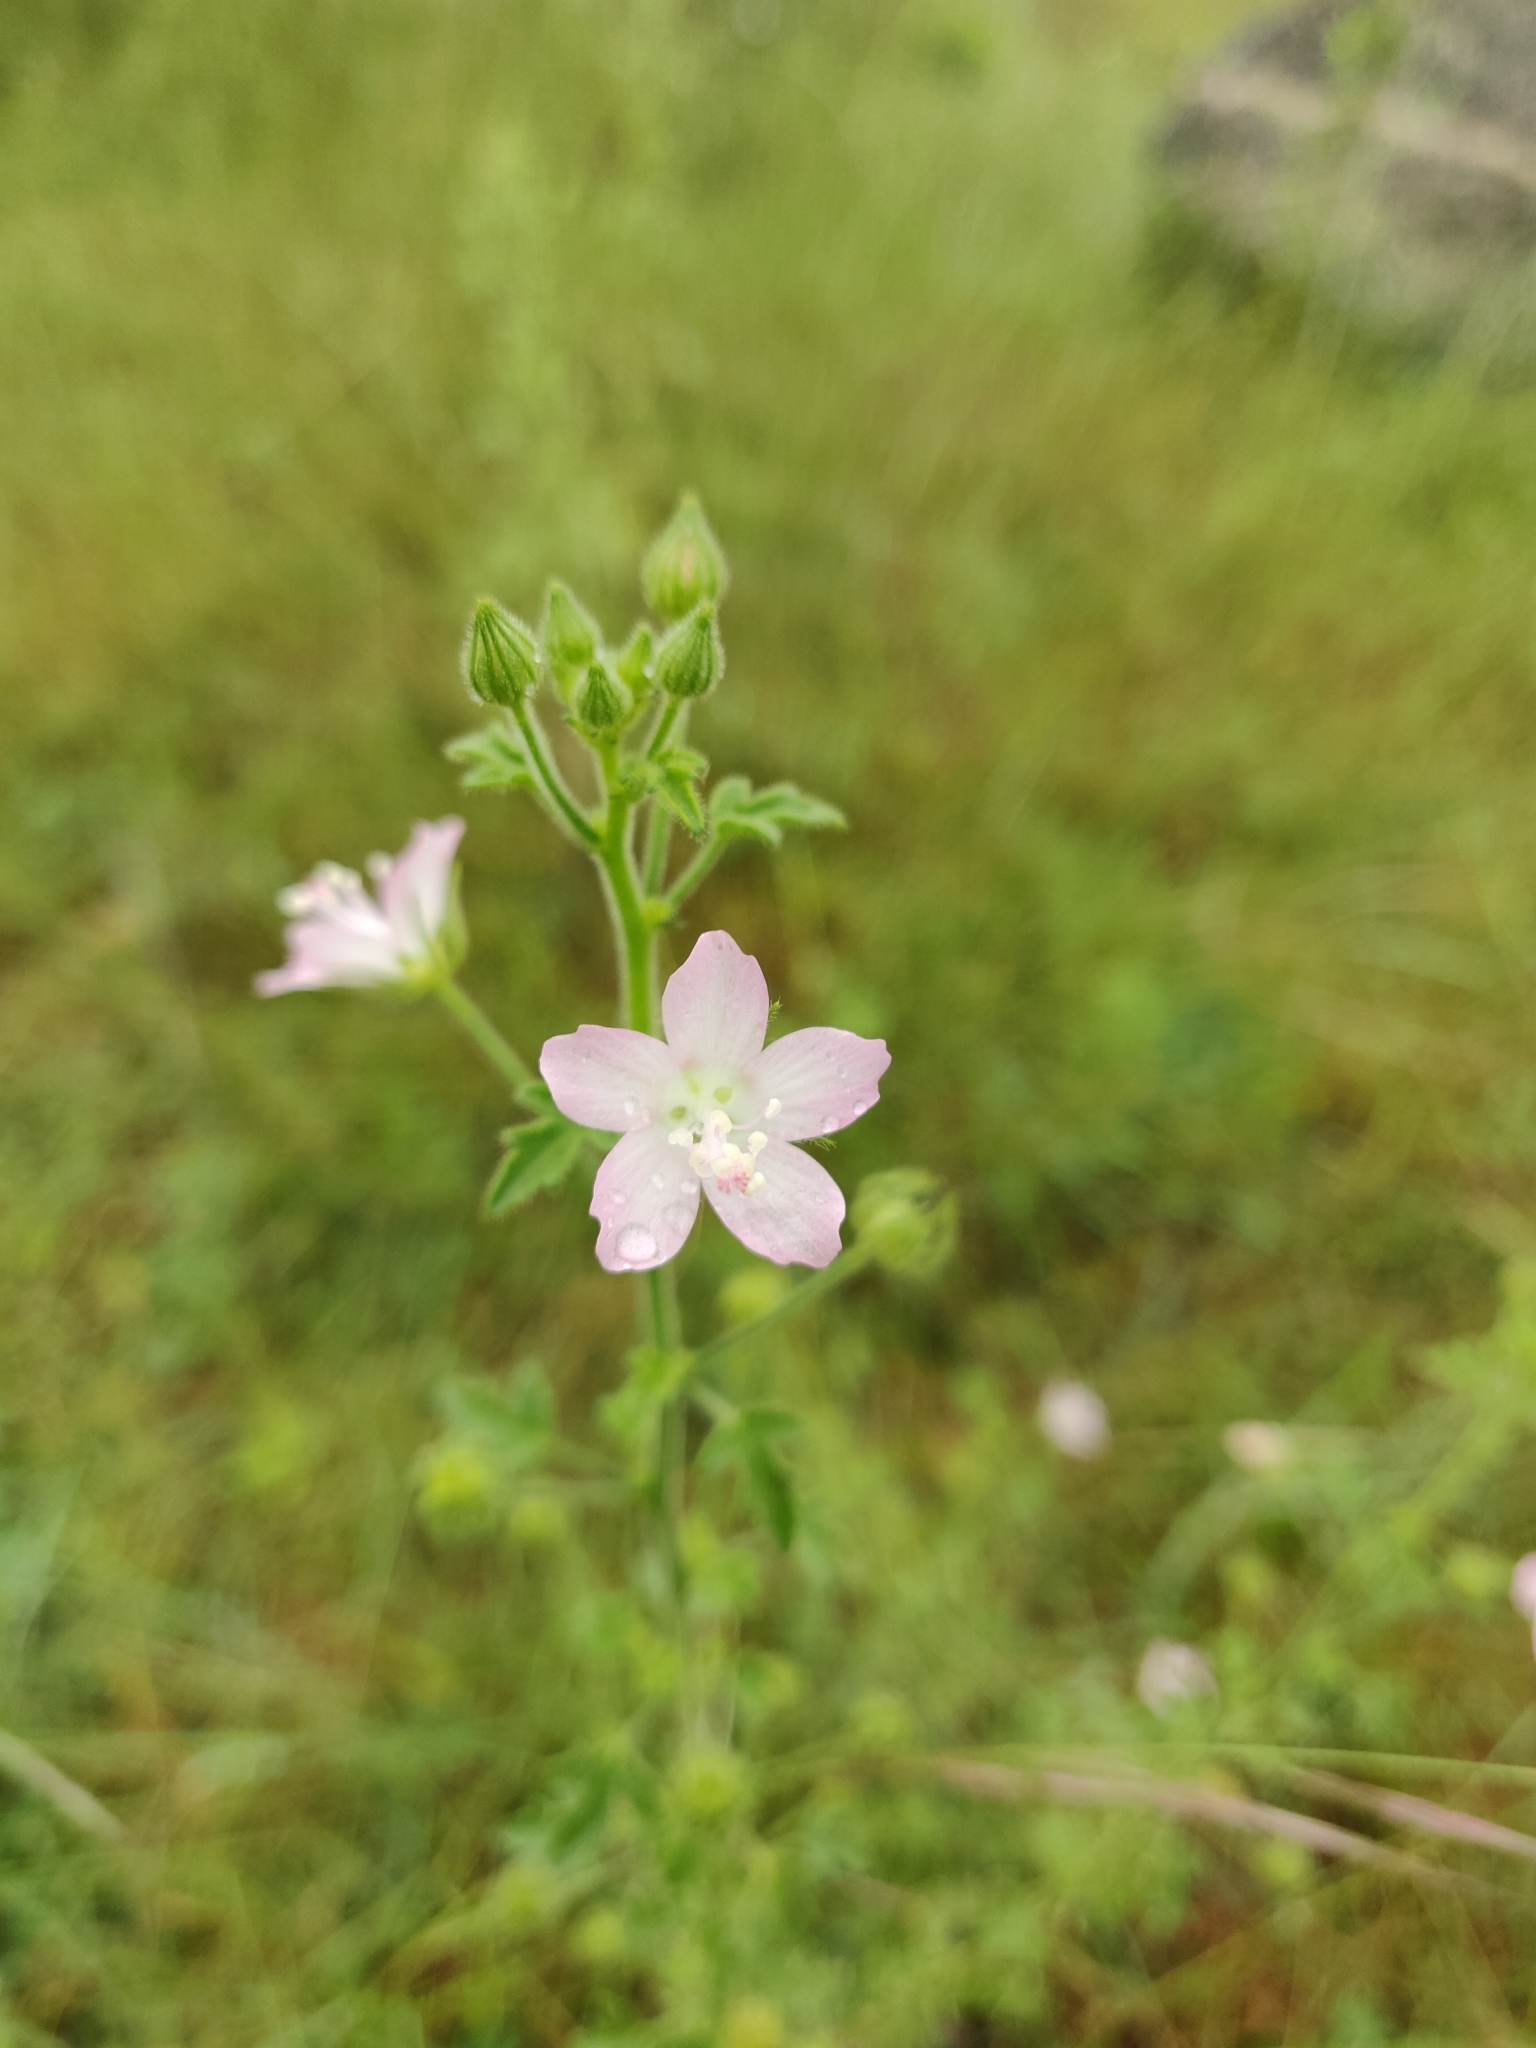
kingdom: Plantae
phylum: Tracheophyta
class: Magnoliopsida
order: Malvales
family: Malvaceae
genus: Pavonia
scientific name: Pavonia zeylanica
